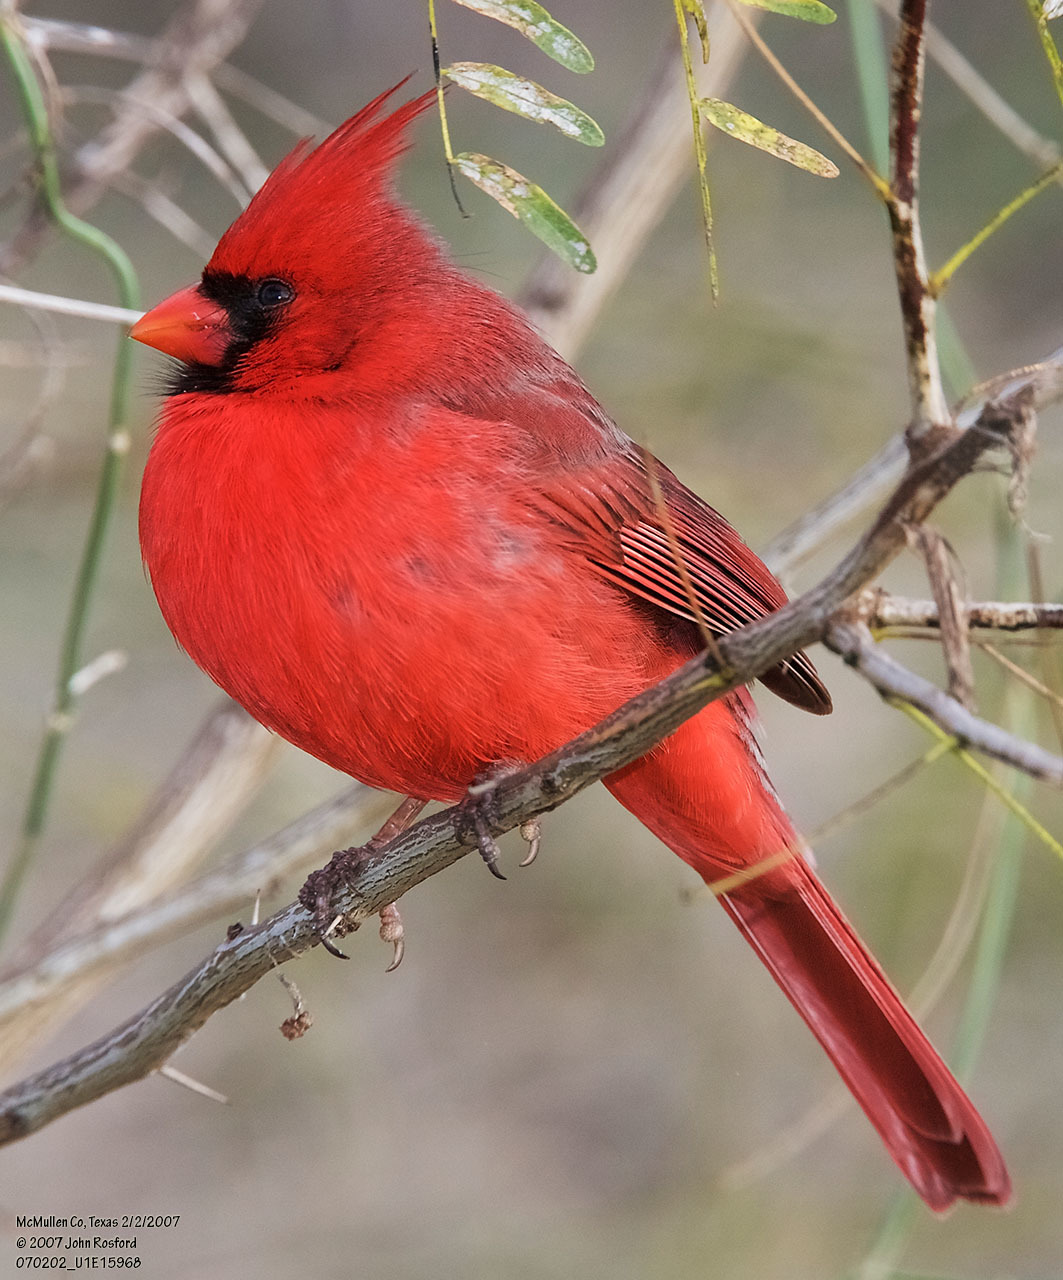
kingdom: Animalia
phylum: Chordata
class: Aves
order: Passeriformes
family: Cardinalidae
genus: Cardinalis
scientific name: Cardinalis cardinalis
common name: Northern cardinal
